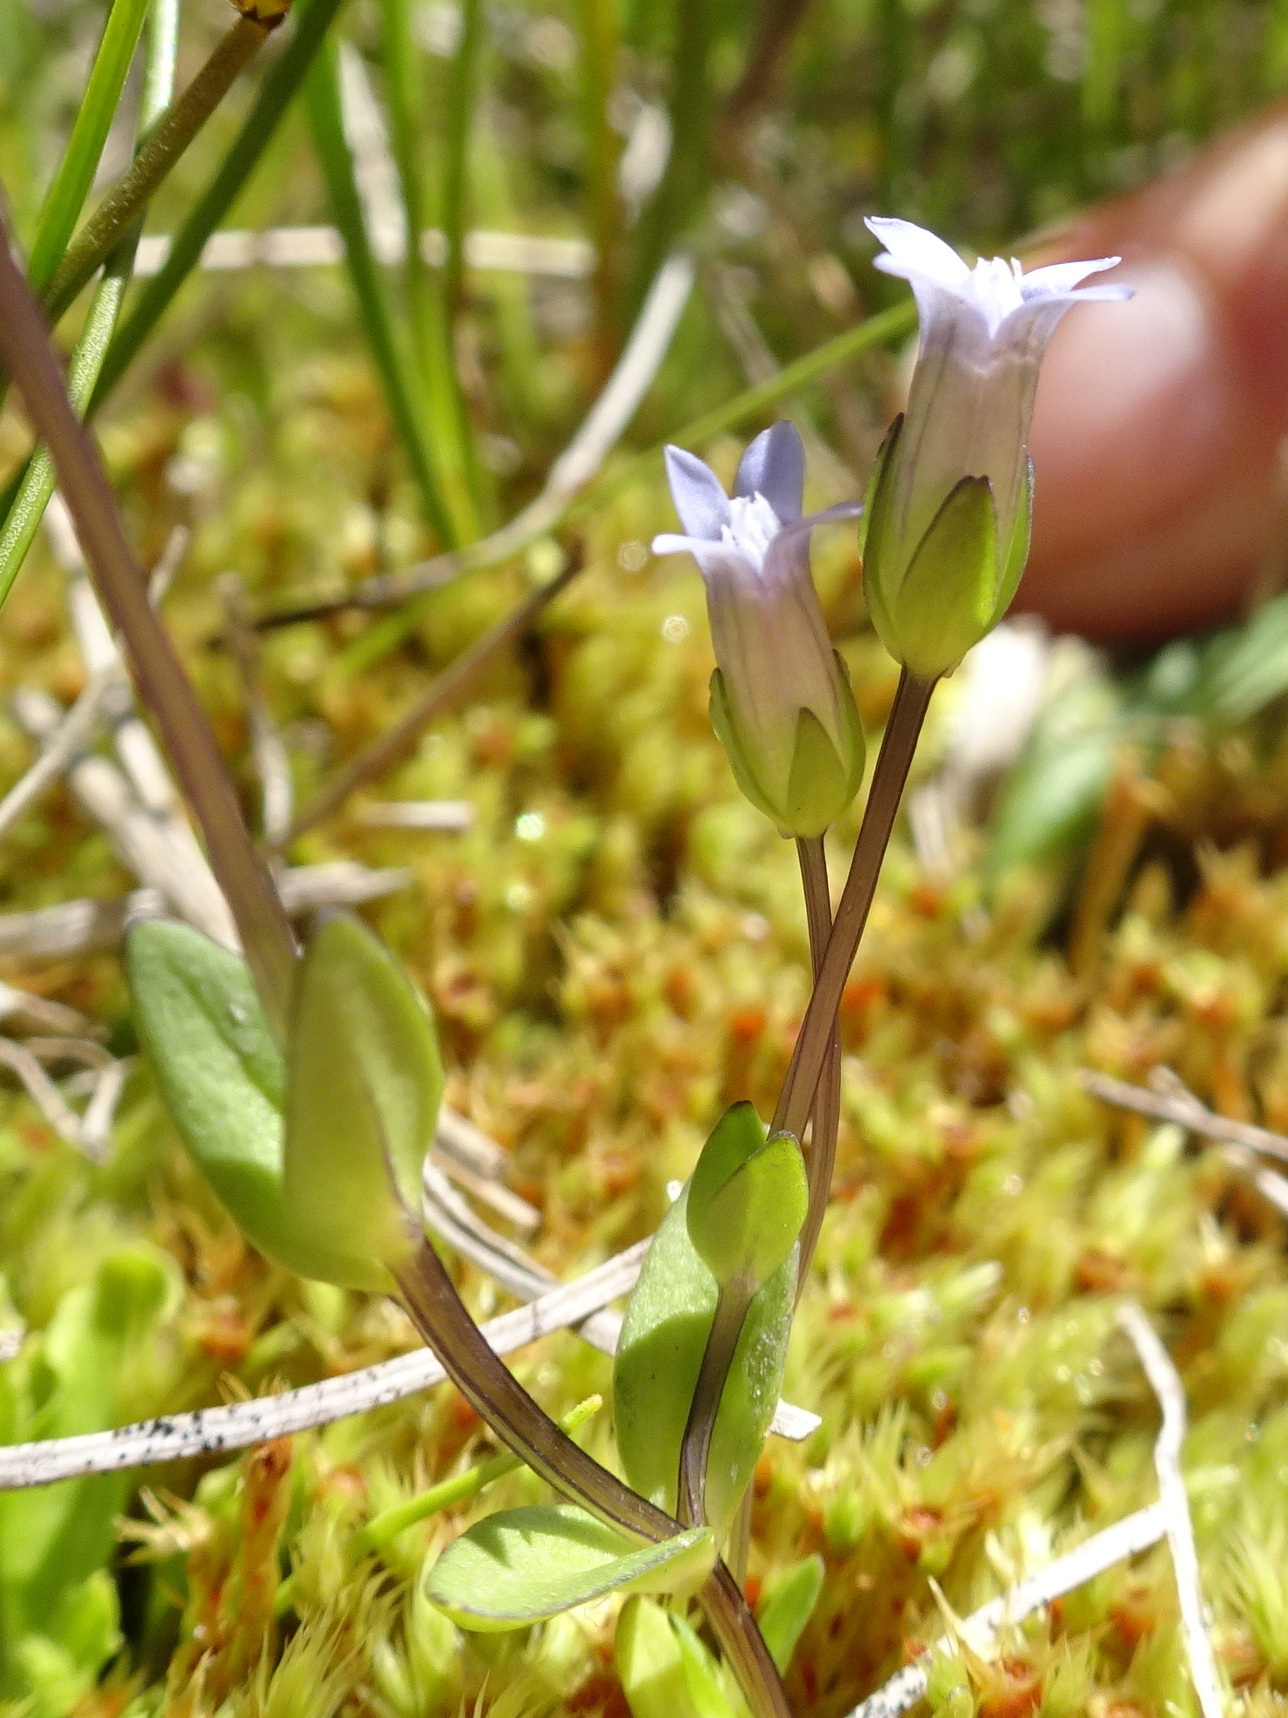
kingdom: Plantae
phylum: Tracheophyta
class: Magnoliopsida
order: Gentianales
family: Gentianaceae
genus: Comastoma
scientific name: Comastoma tenellum
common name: Dane's dwarf gentian
